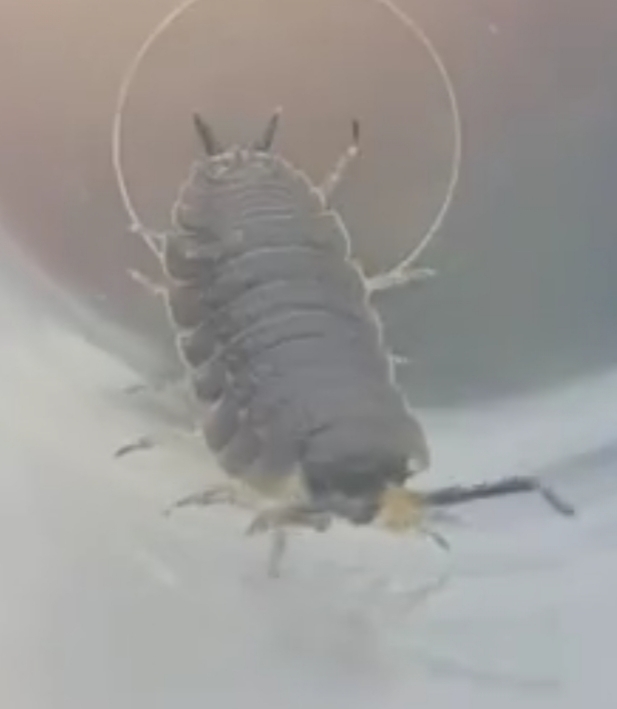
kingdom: Animalia
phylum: Arthropoda
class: Malacostraca
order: Isopoda
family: Porcellionidae
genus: Porcellio
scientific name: Porcellio scaber
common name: Common rough woodlouse
